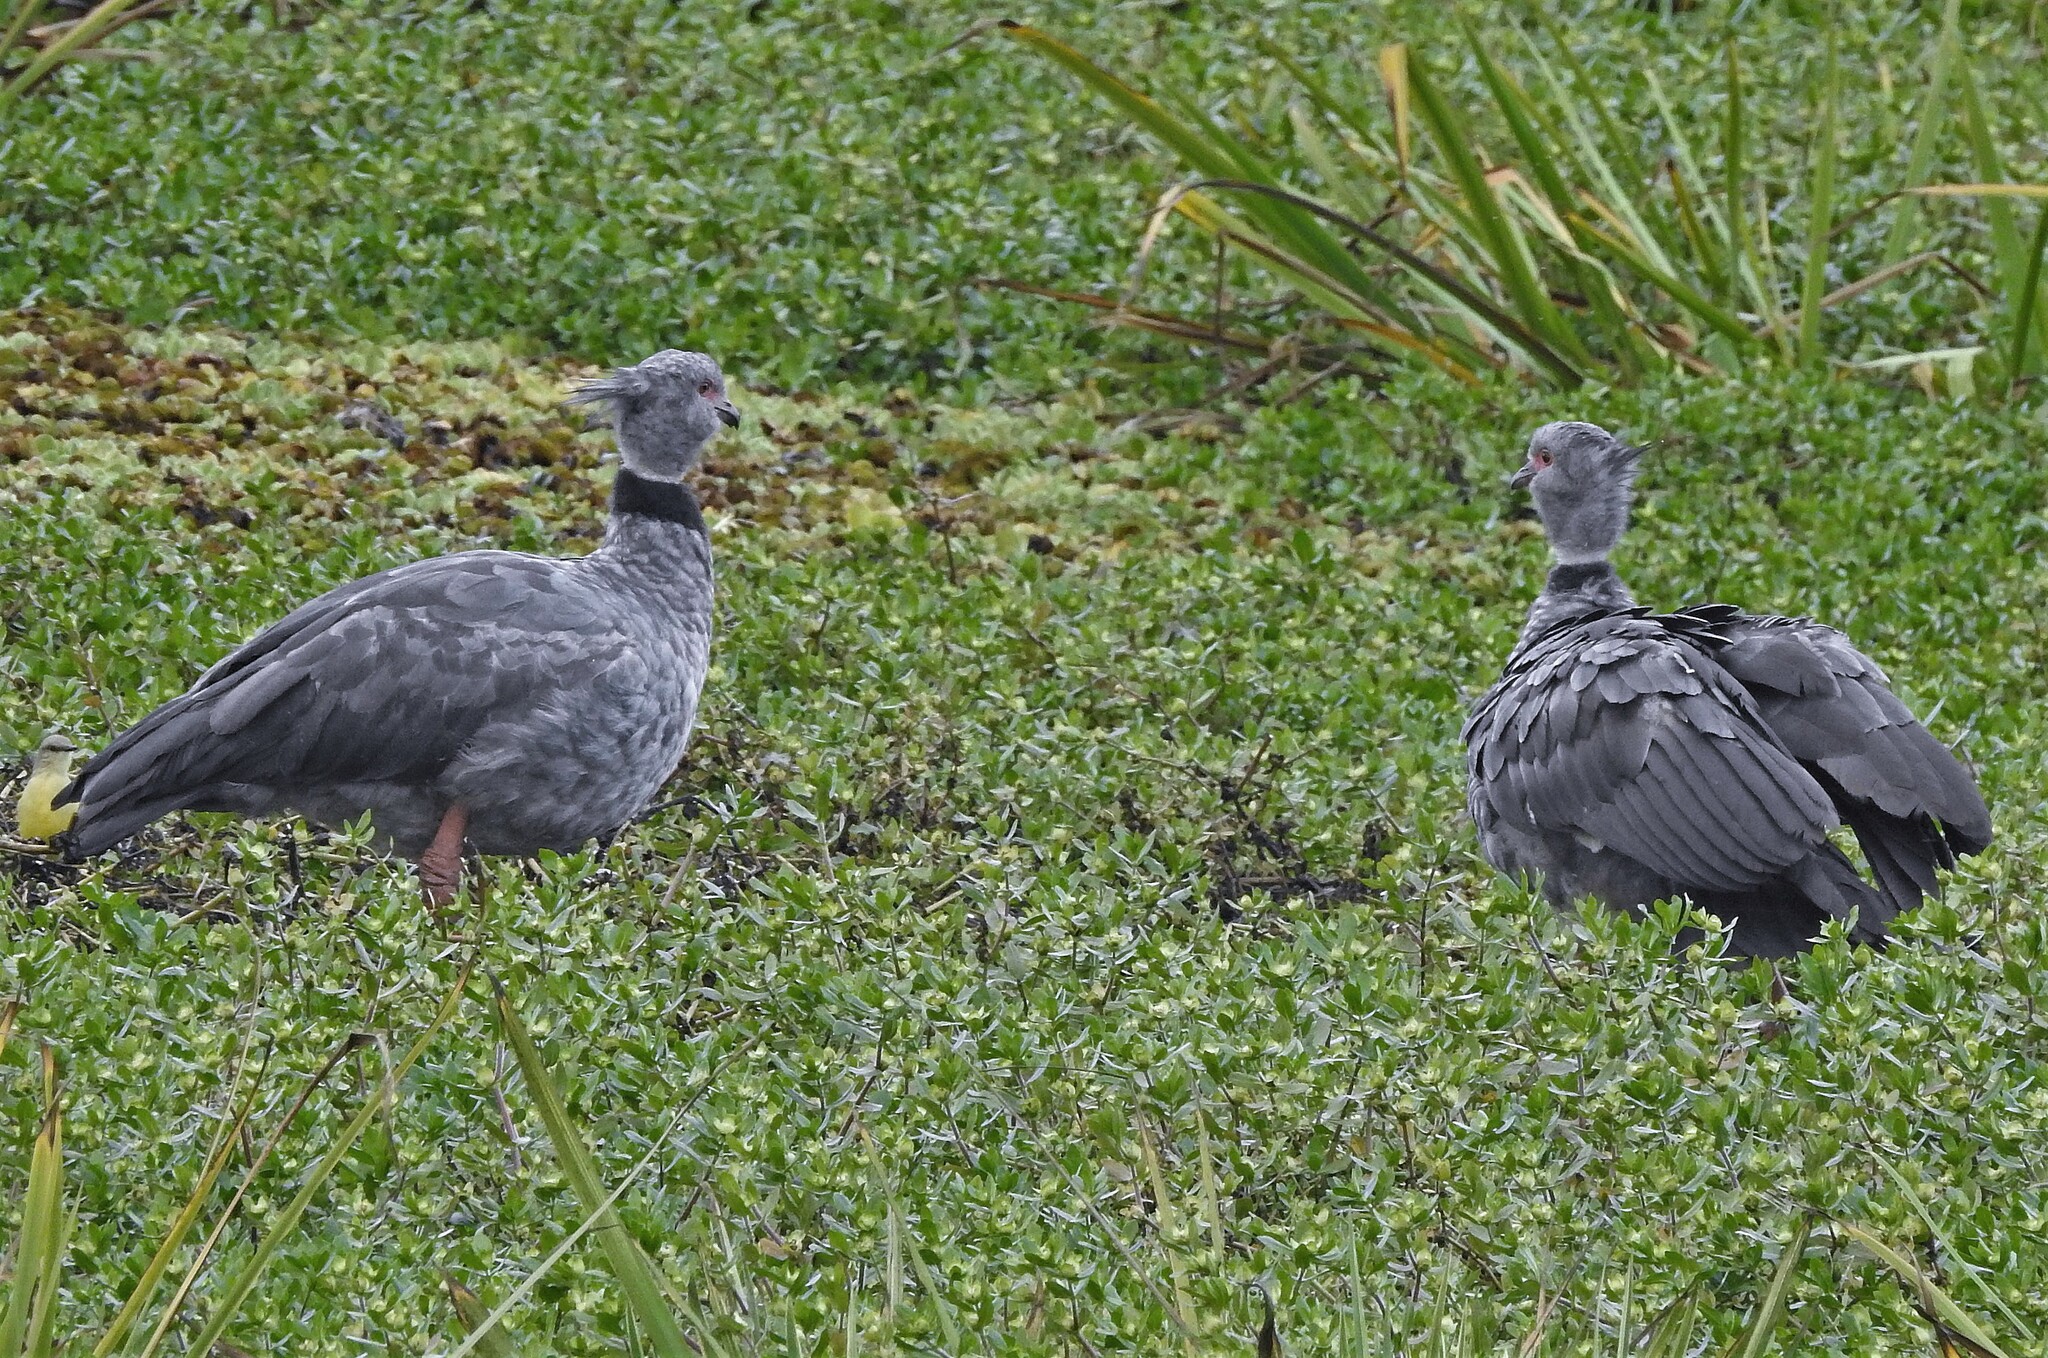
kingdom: Animalia
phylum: Chordata
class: Aves
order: Anseriformes
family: Anhimidae
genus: Chauna
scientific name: Chauna torquata
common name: Southern screamer
